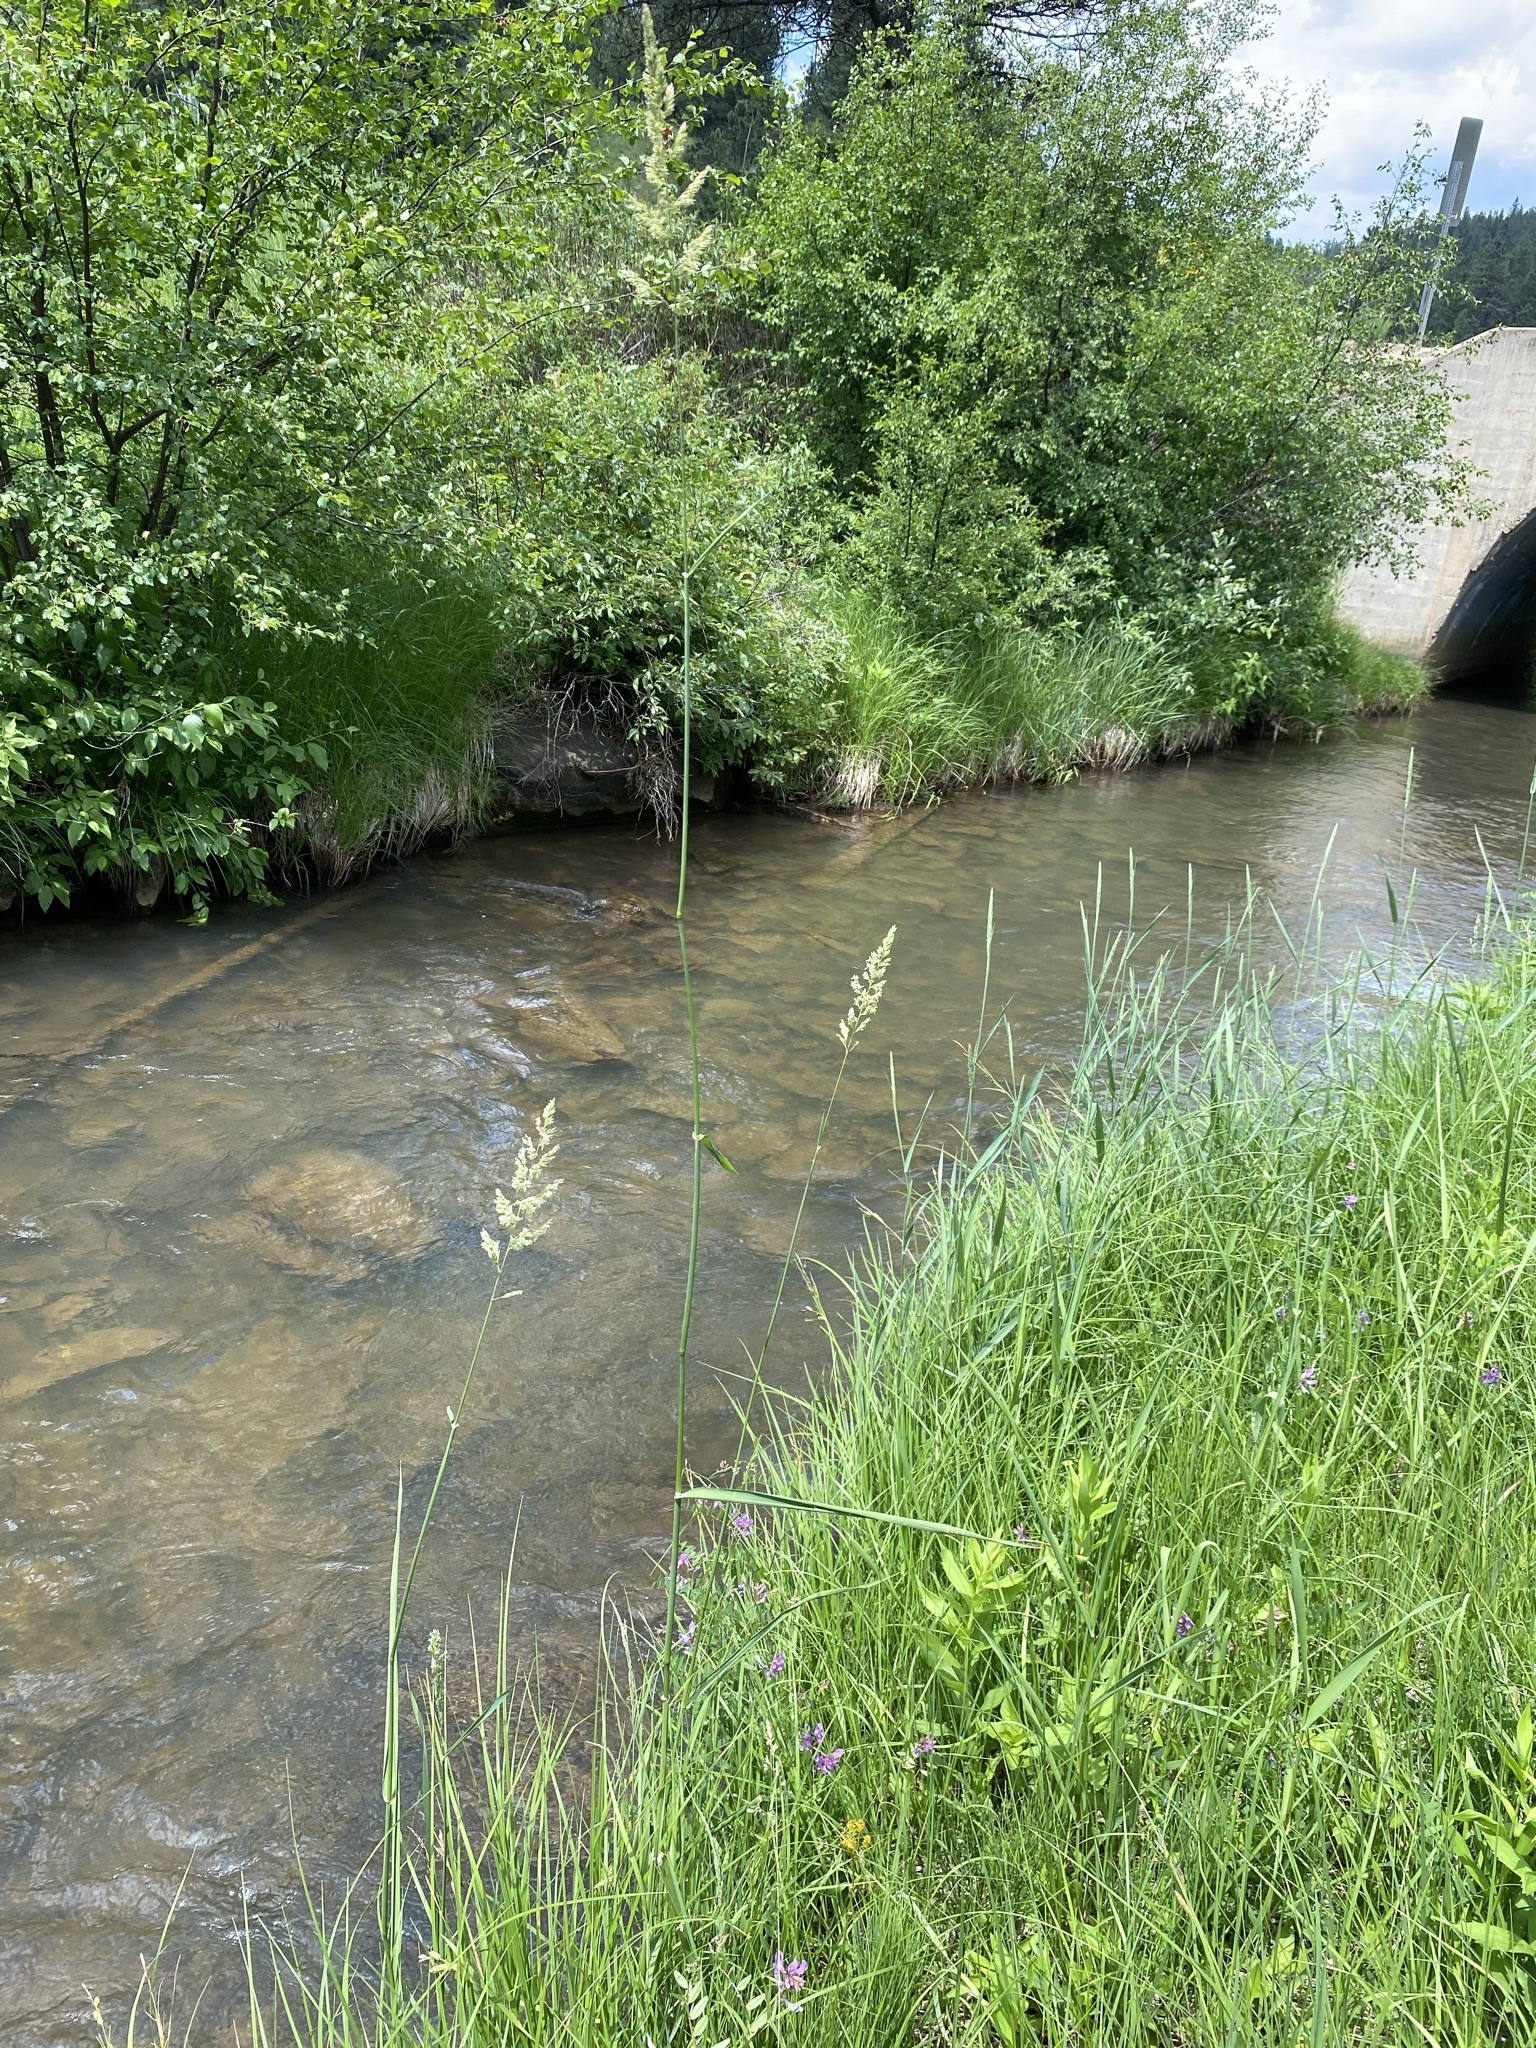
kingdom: Plantae
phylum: Tracheophyta
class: Liliopsida
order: Poales
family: Poaceae
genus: Phalaris
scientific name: Phalaris arundinacea
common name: Reed canary-grass
